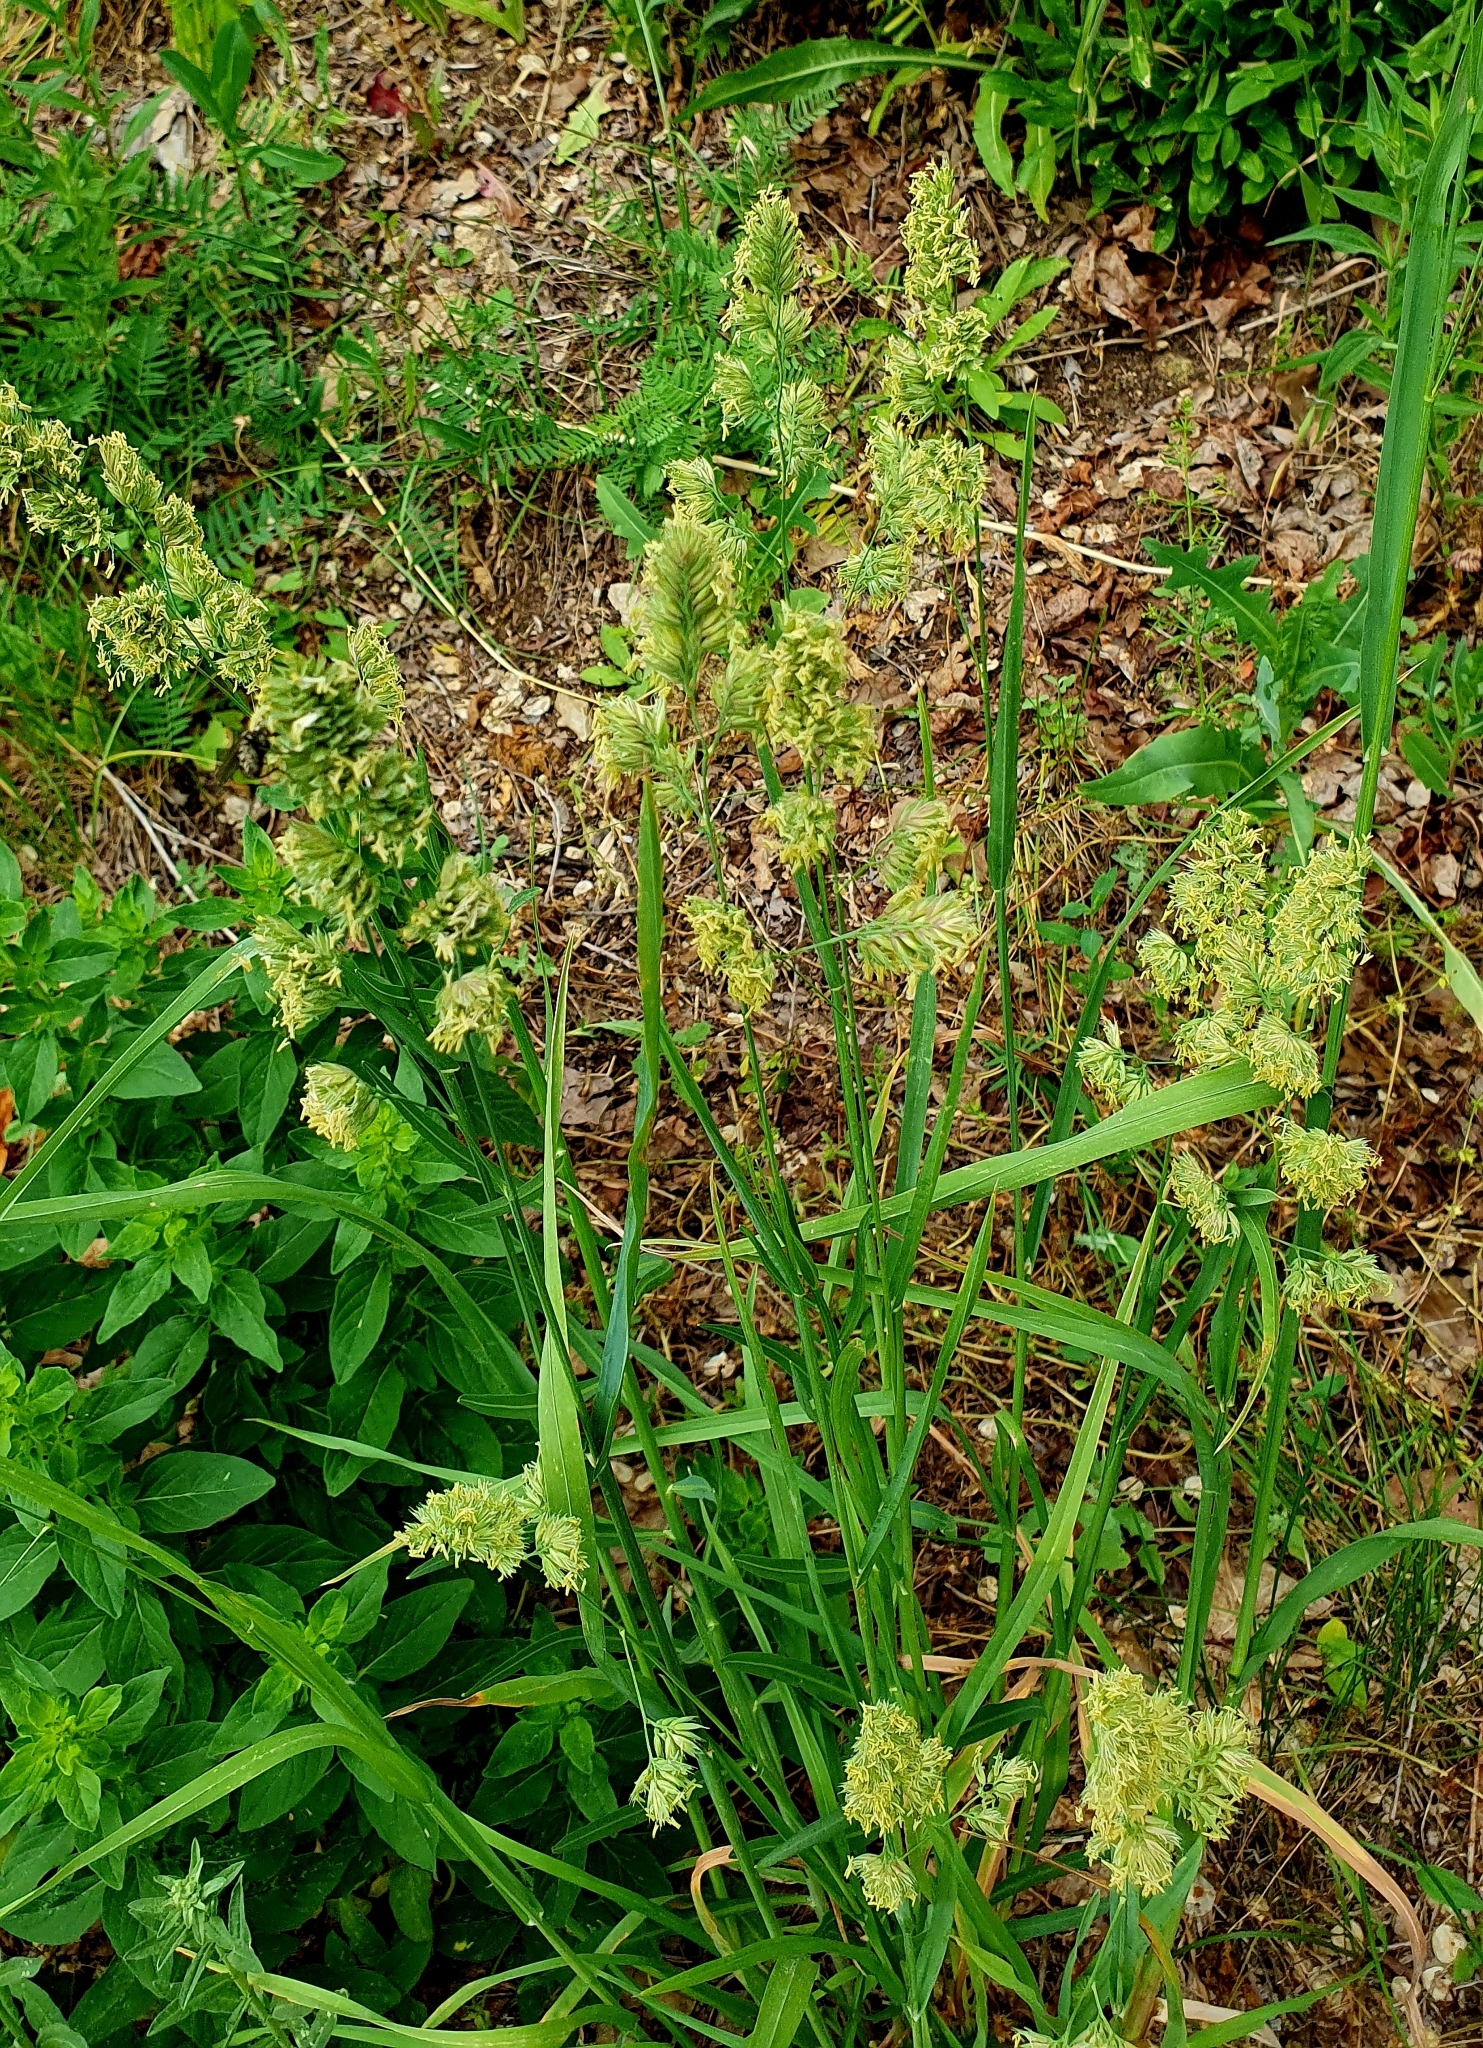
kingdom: Plantae
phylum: Tracheophyta
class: Liliopsida
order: Poales
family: Poaceae
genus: Dactylis
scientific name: Dactylis glomerata
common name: Orchardgrass
